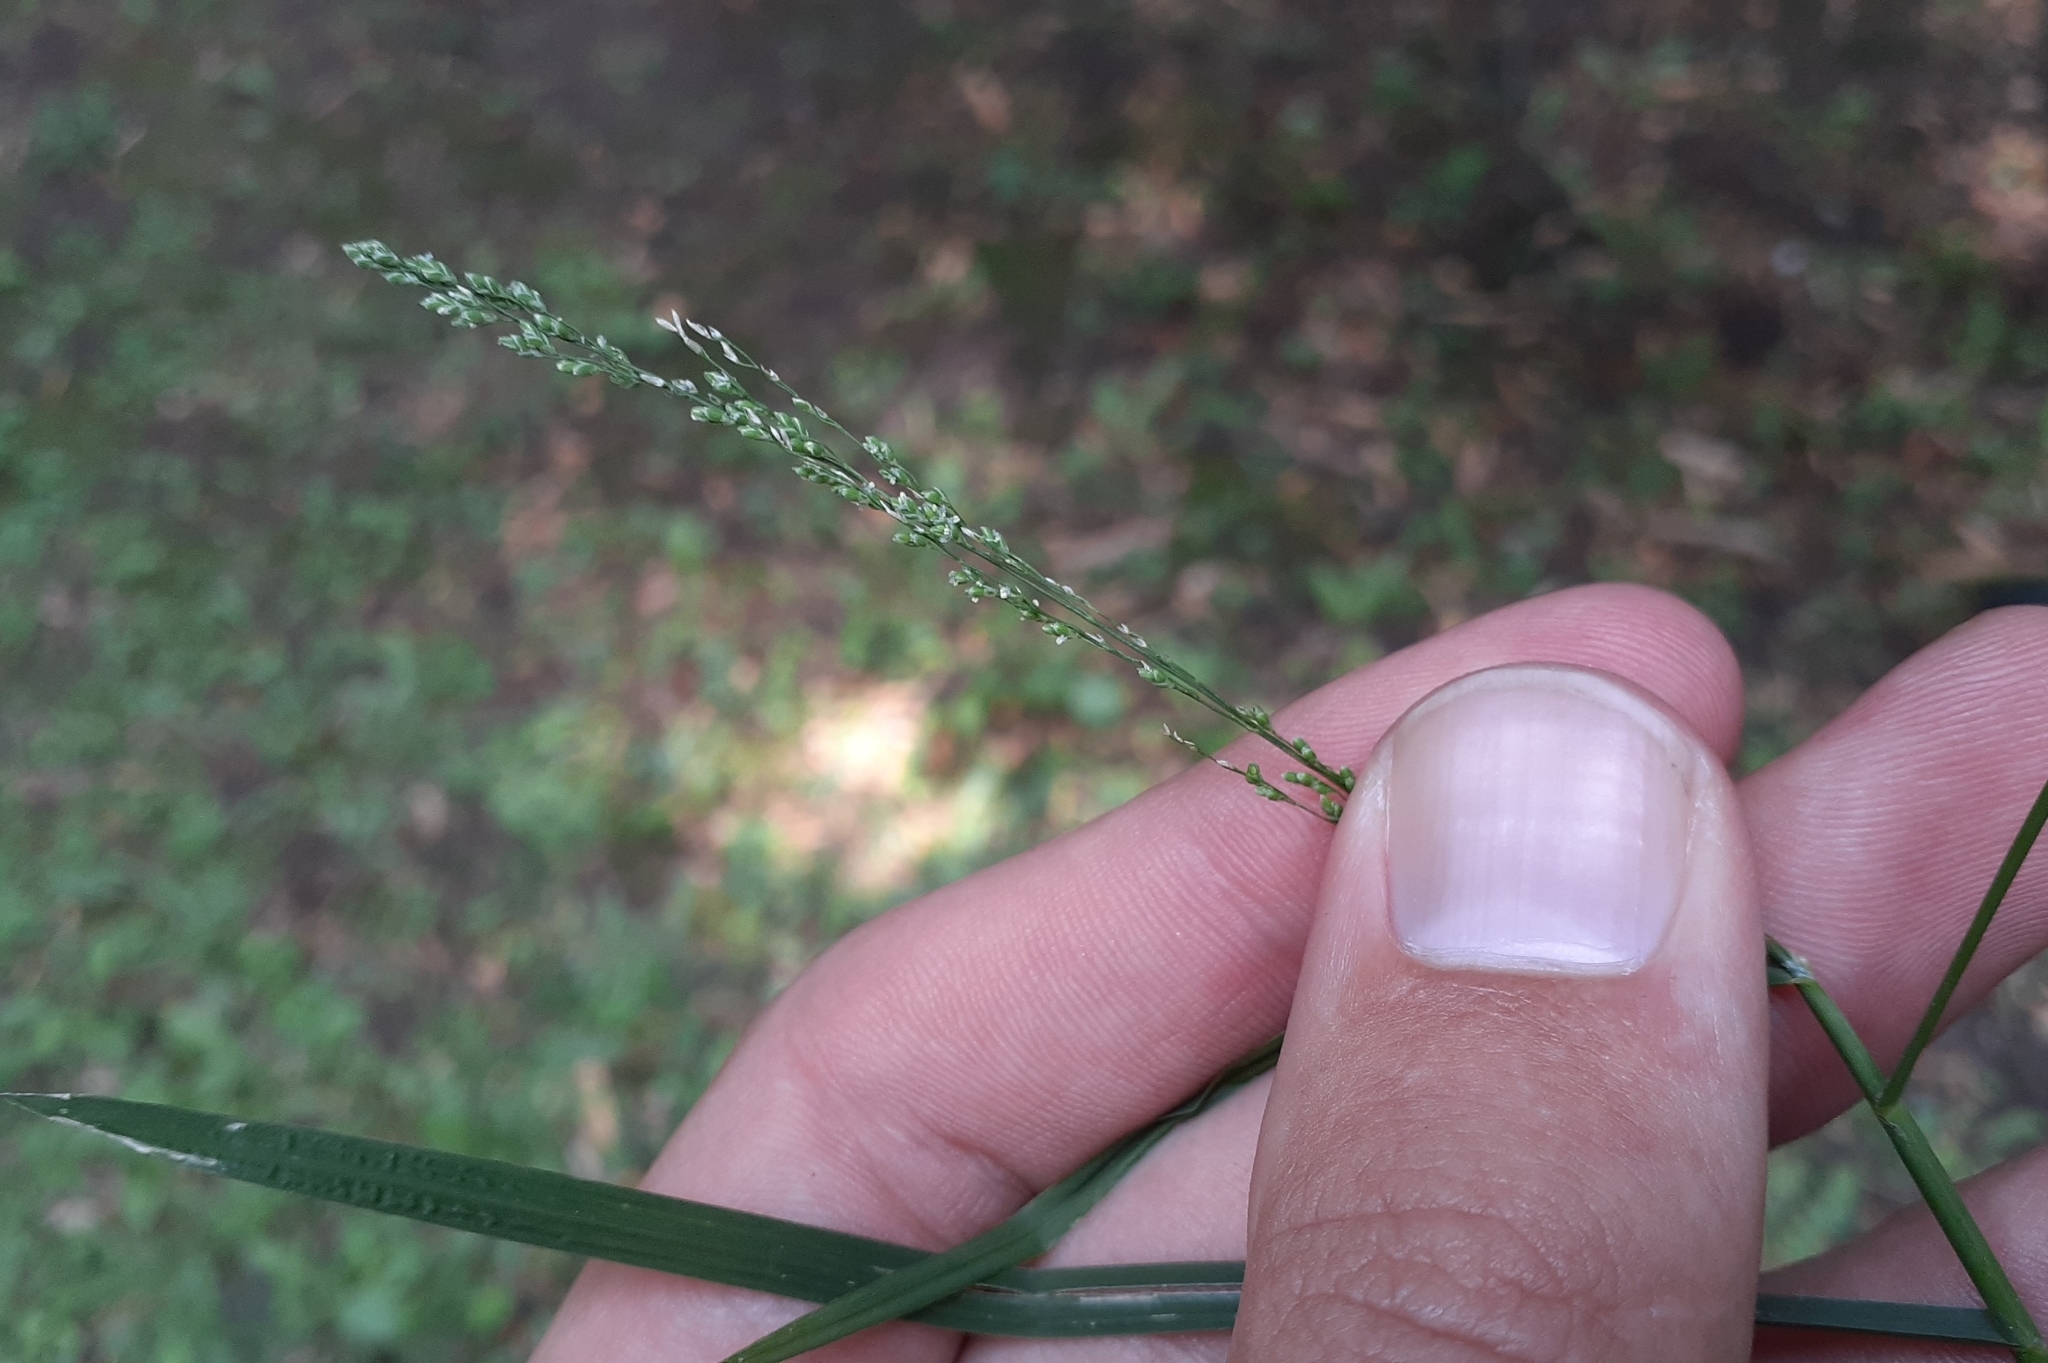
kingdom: Plantae
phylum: Tracheophyta
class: Liliopsida
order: Poales
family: Poaceae
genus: Glyceria
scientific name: Glyceria striata
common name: Fowl manna grass
